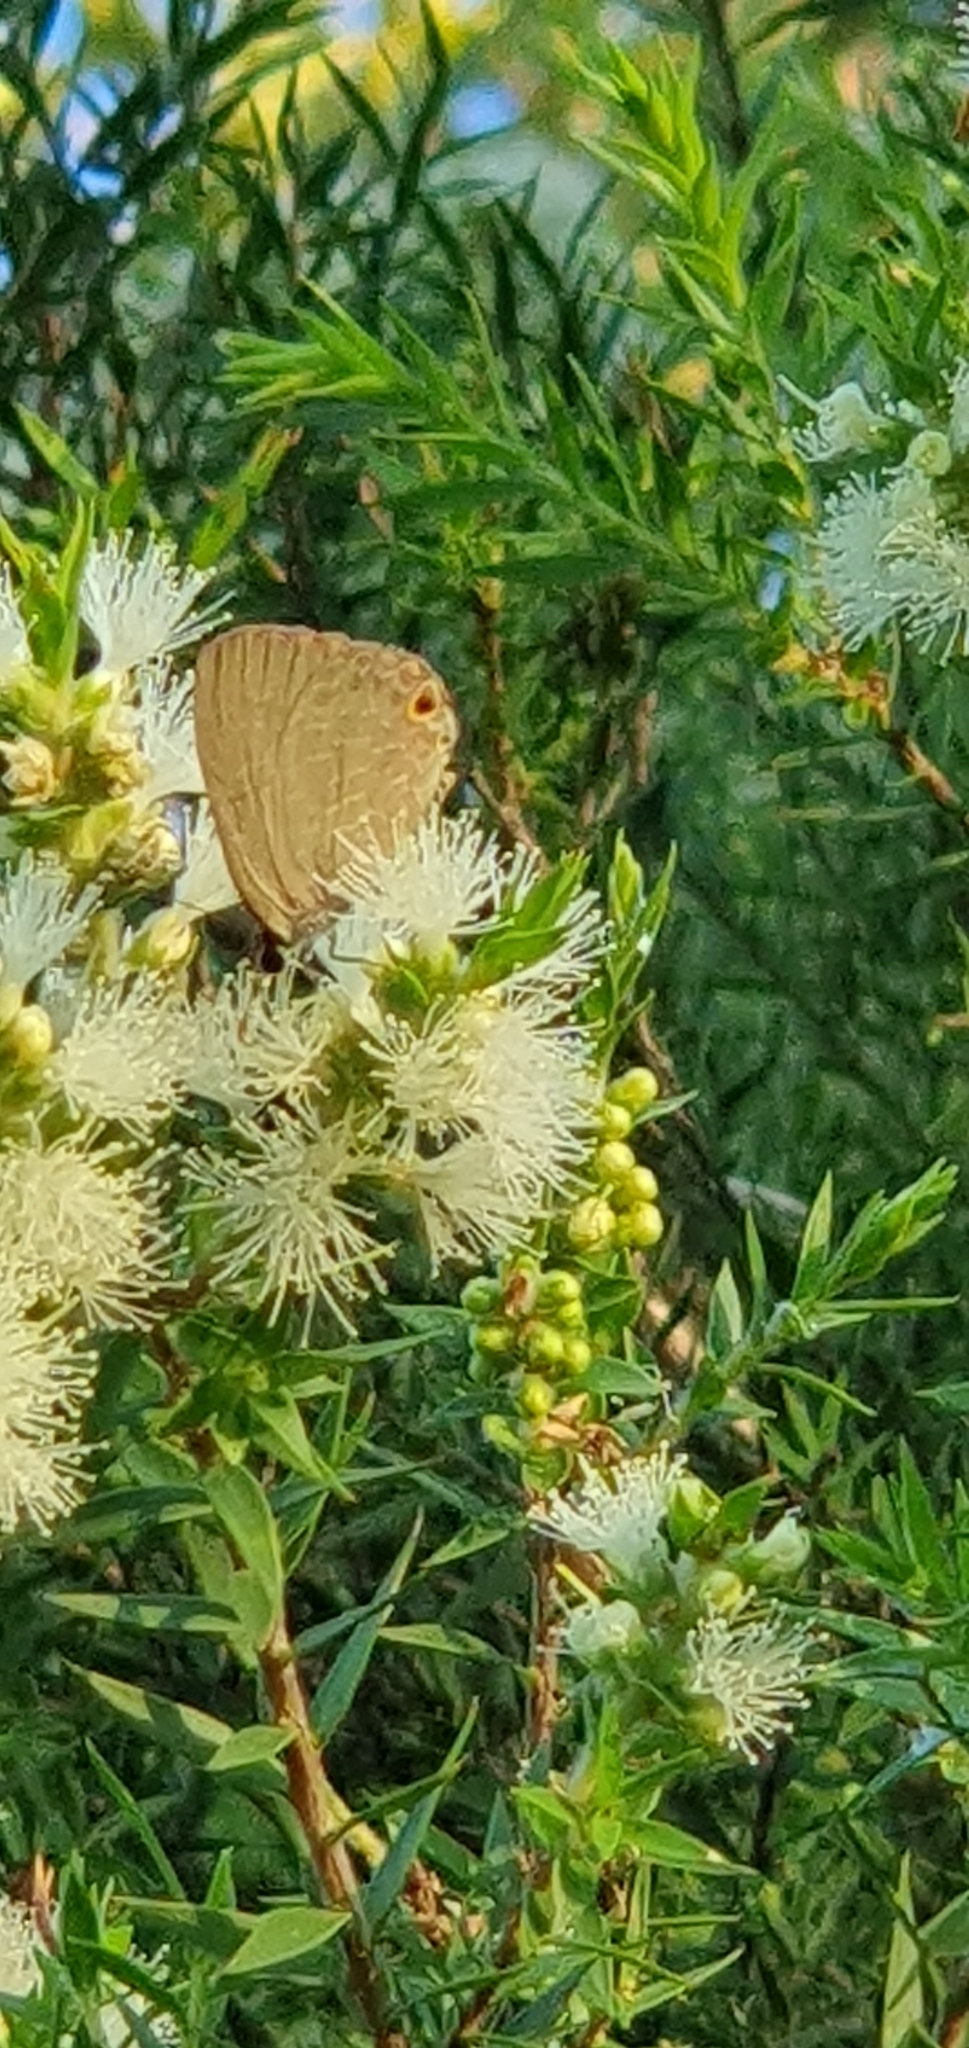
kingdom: Animalia
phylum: Arthropoda
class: Insecta
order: Lepidoptera
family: Lycaenidae
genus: Jamides
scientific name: Jamides phaseli
